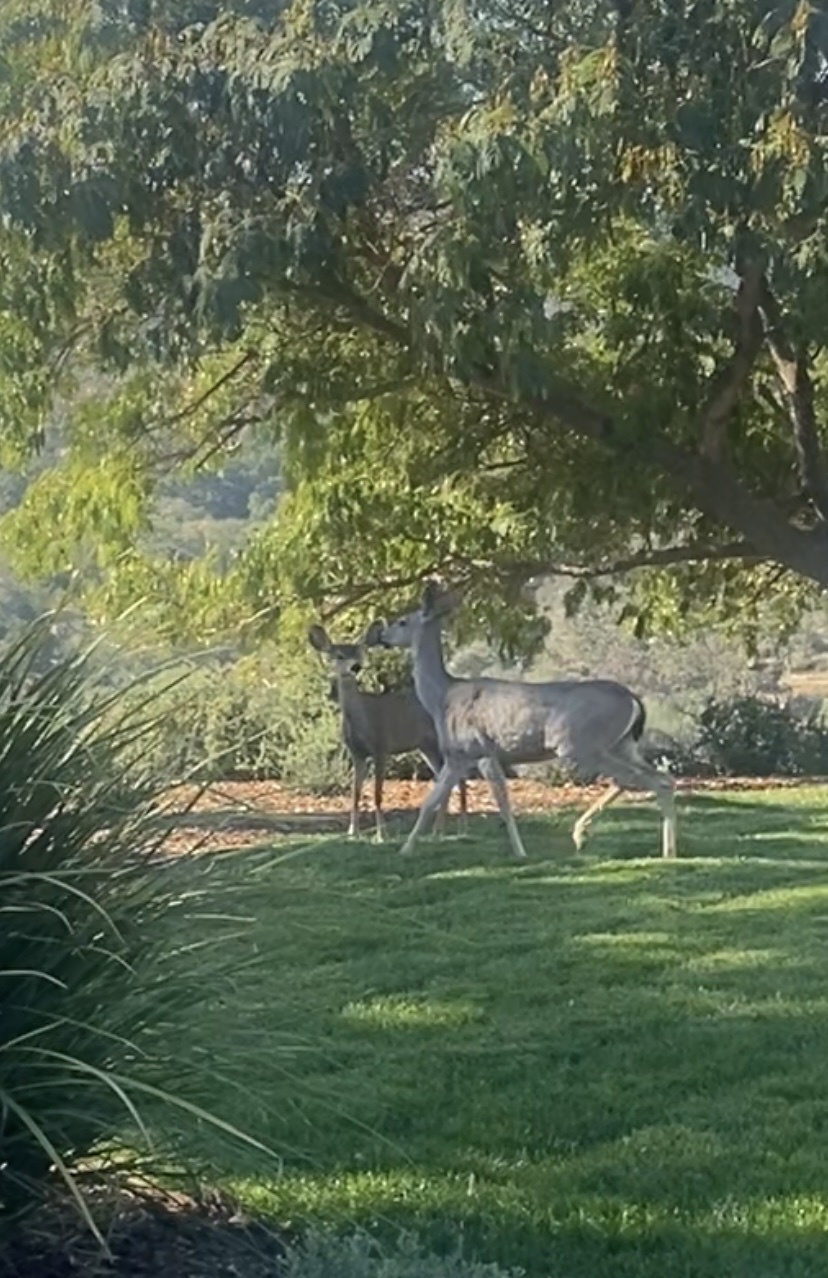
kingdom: Animalia
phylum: Chordata
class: Mammalia
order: Artiodactyla
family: Cervidae
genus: Odocoileus
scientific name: Odocoileus hemionus
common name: Mule deer
